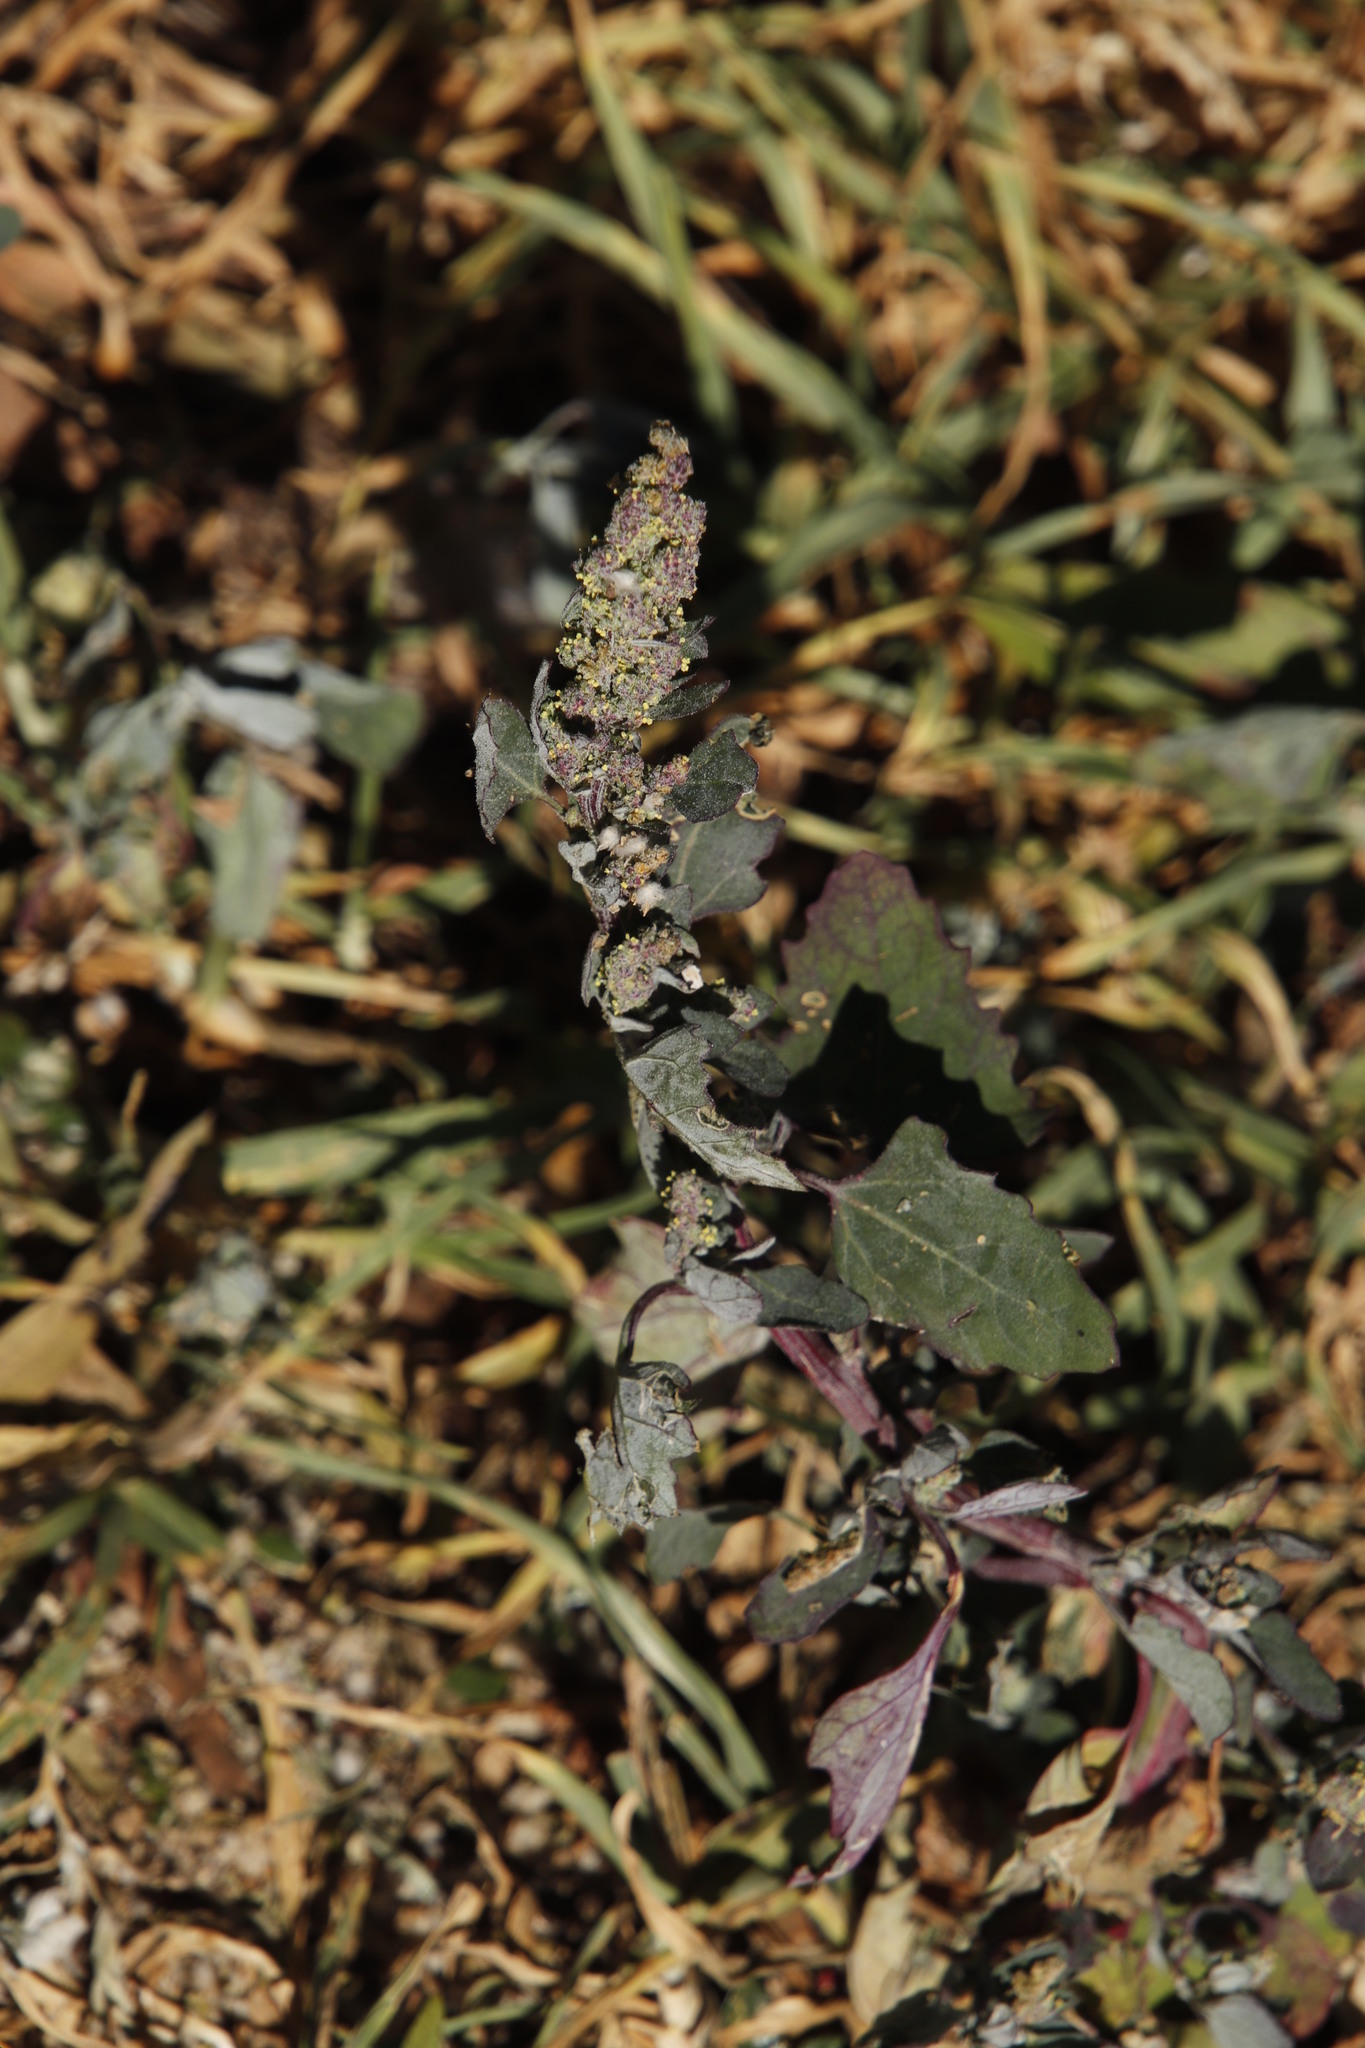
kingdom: Plantae
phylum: Tracheophyta
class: Magnoliopsida
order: Caryophyllales
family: Amaranthaceae
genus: Chenopodium
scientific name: Chenopodium album
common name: Fat-hen
